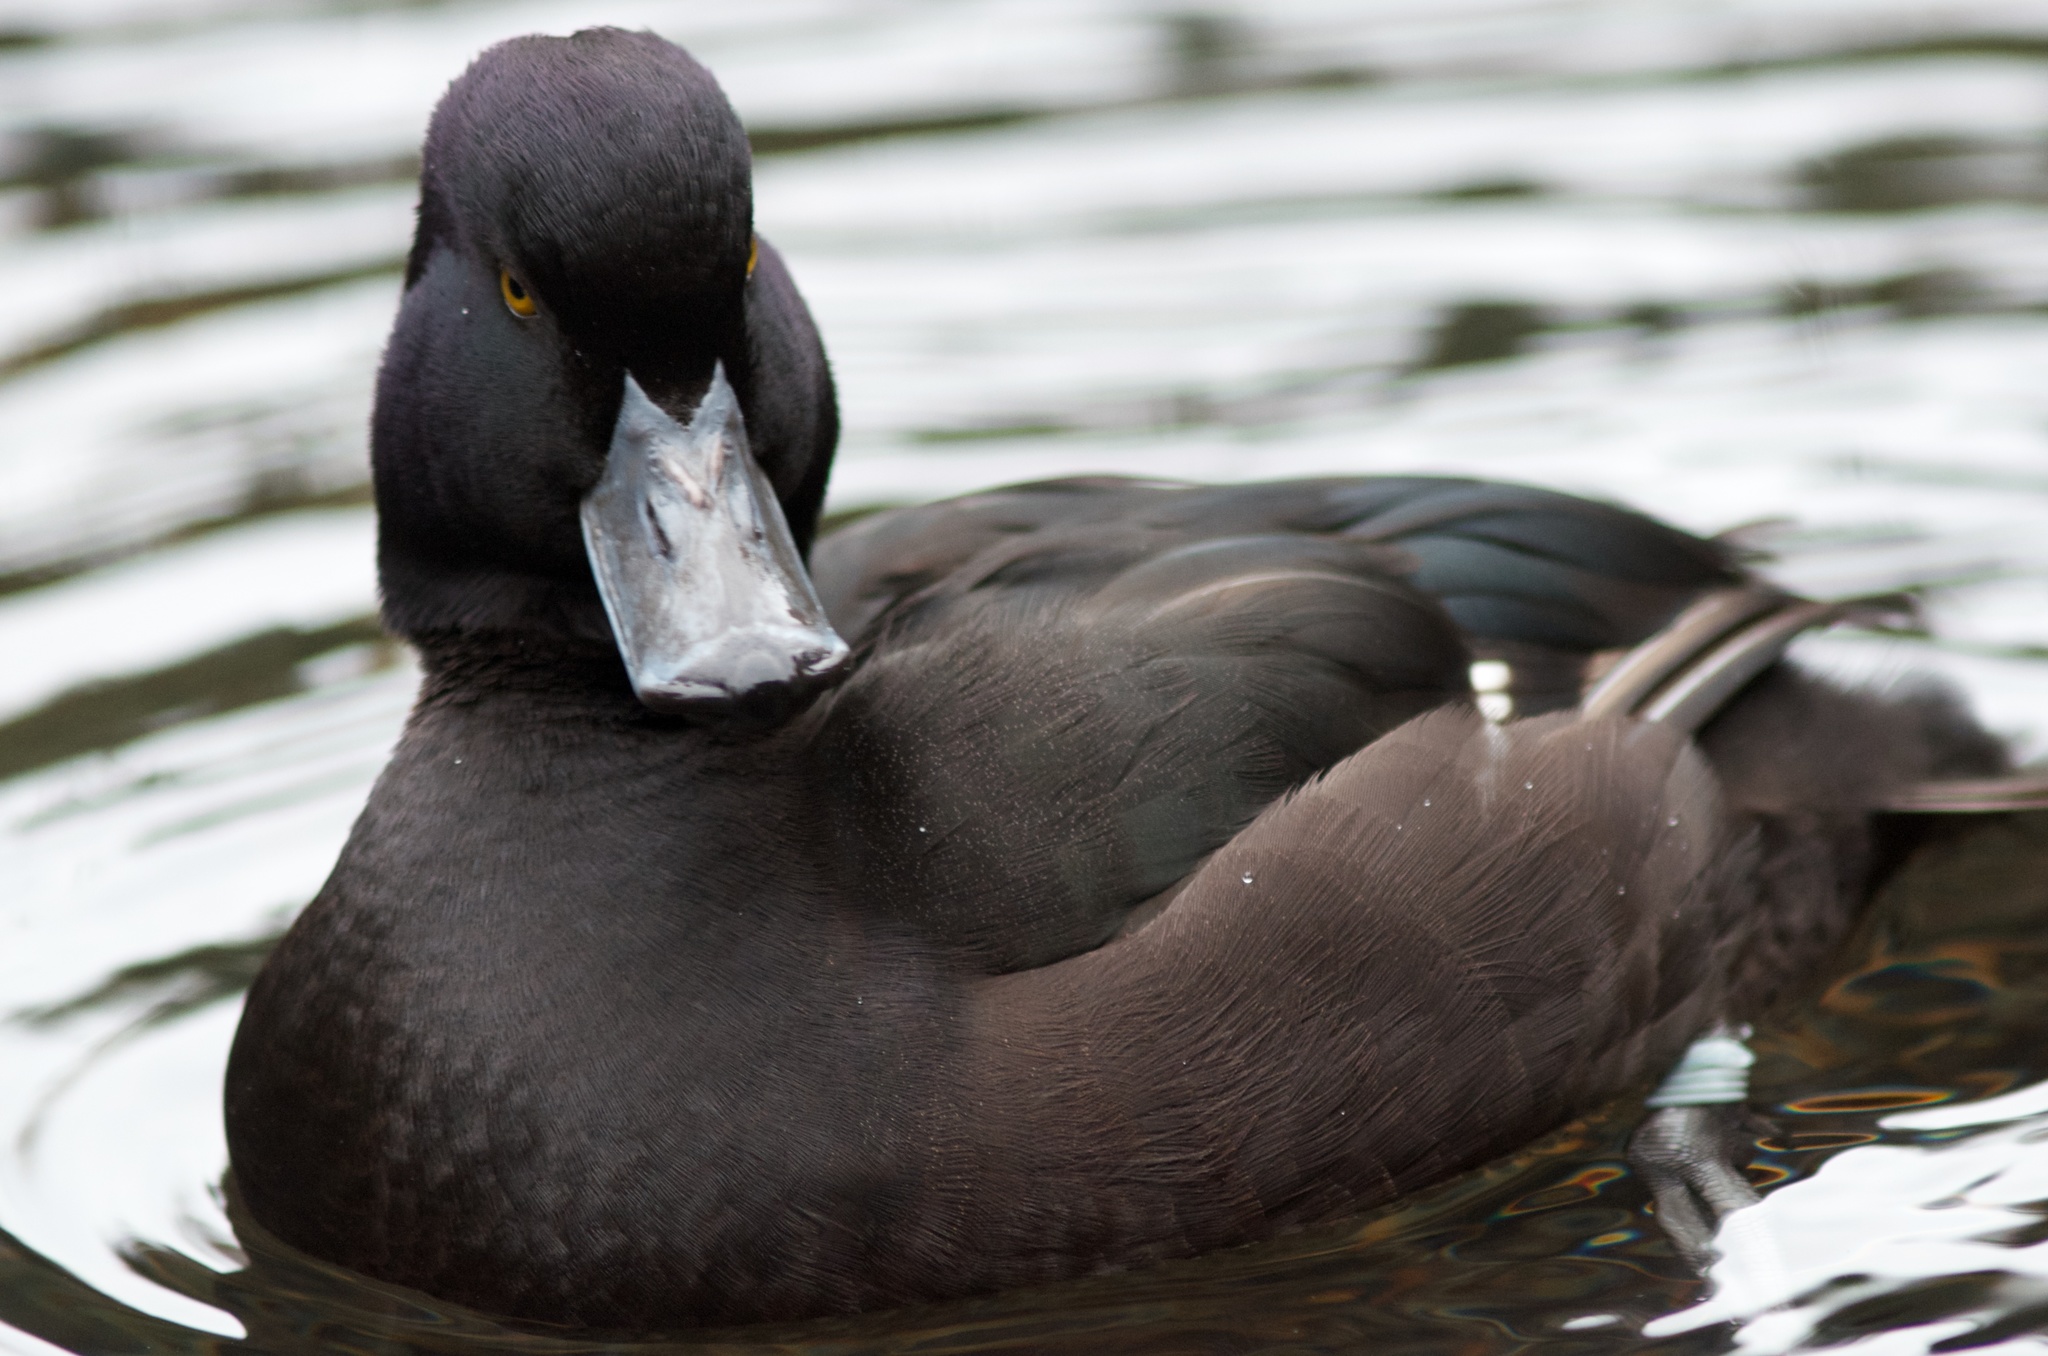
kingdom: Animalia
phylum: Chordata
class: Aves
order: Anseriformes
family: Anatidae
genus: Aythya
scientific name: Aythya novaeseelandiae
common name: New zealand scaup
